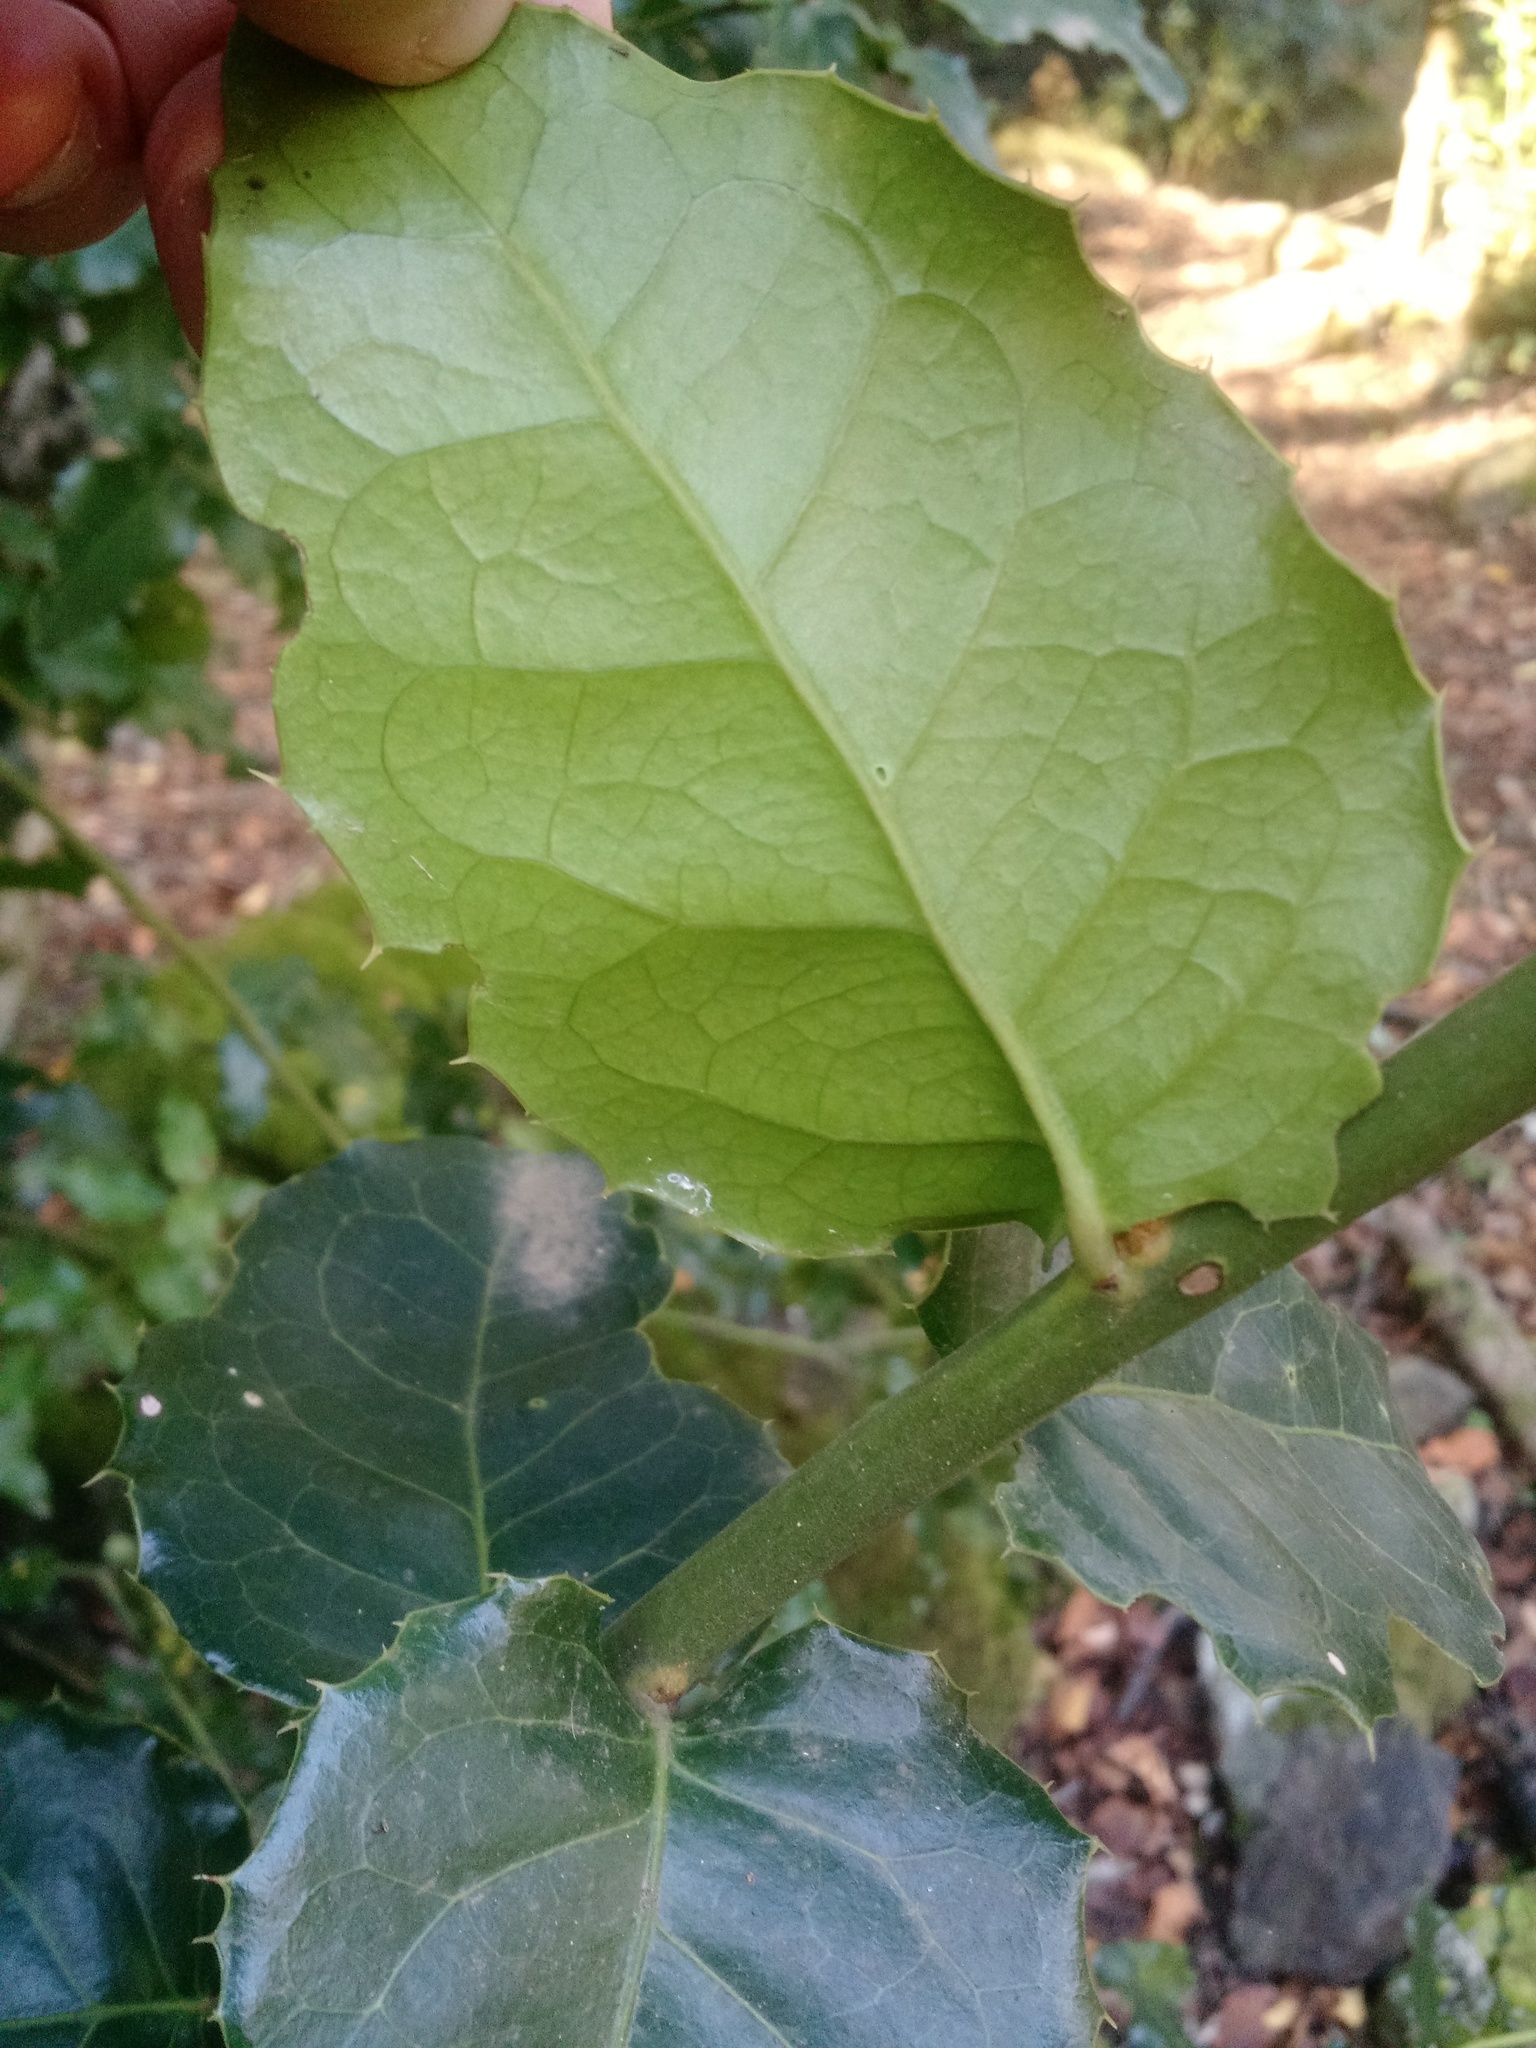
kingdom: Plantae
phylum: Tracheophyta
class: Magnoliopsida
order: Cardiopteridales
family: Cardiopteridaceae
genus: Citronella
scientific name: Citronella mucronata
